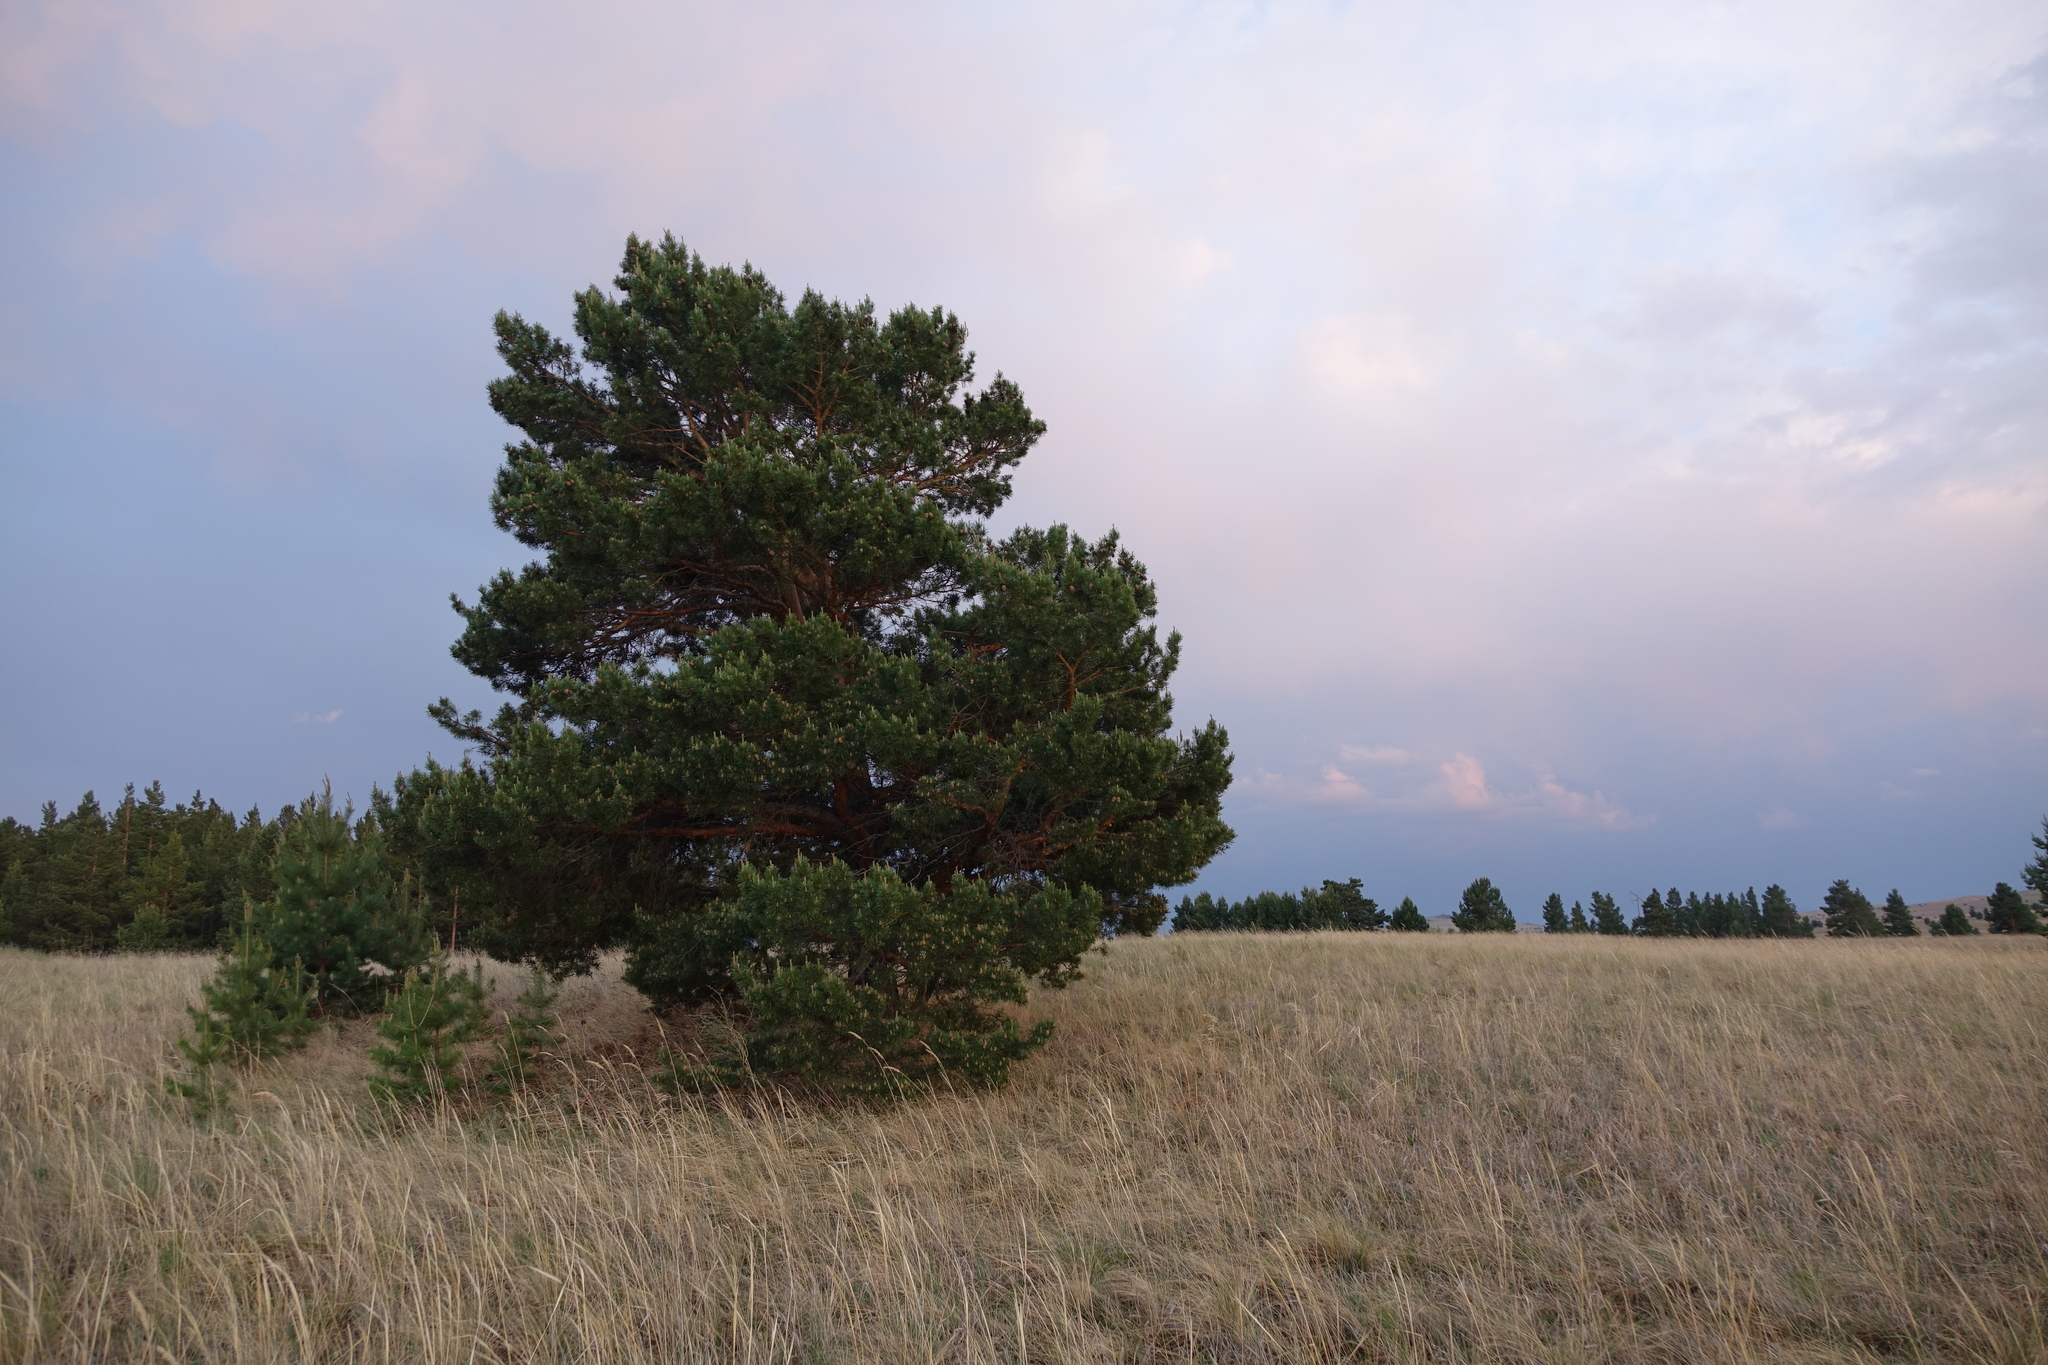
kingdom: Plantae
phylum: Tracheophyta
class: Pinopsida
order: Pinales
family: Pinaceae
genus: Pinus
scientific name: Pinus sylvestris
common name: Scots pine
